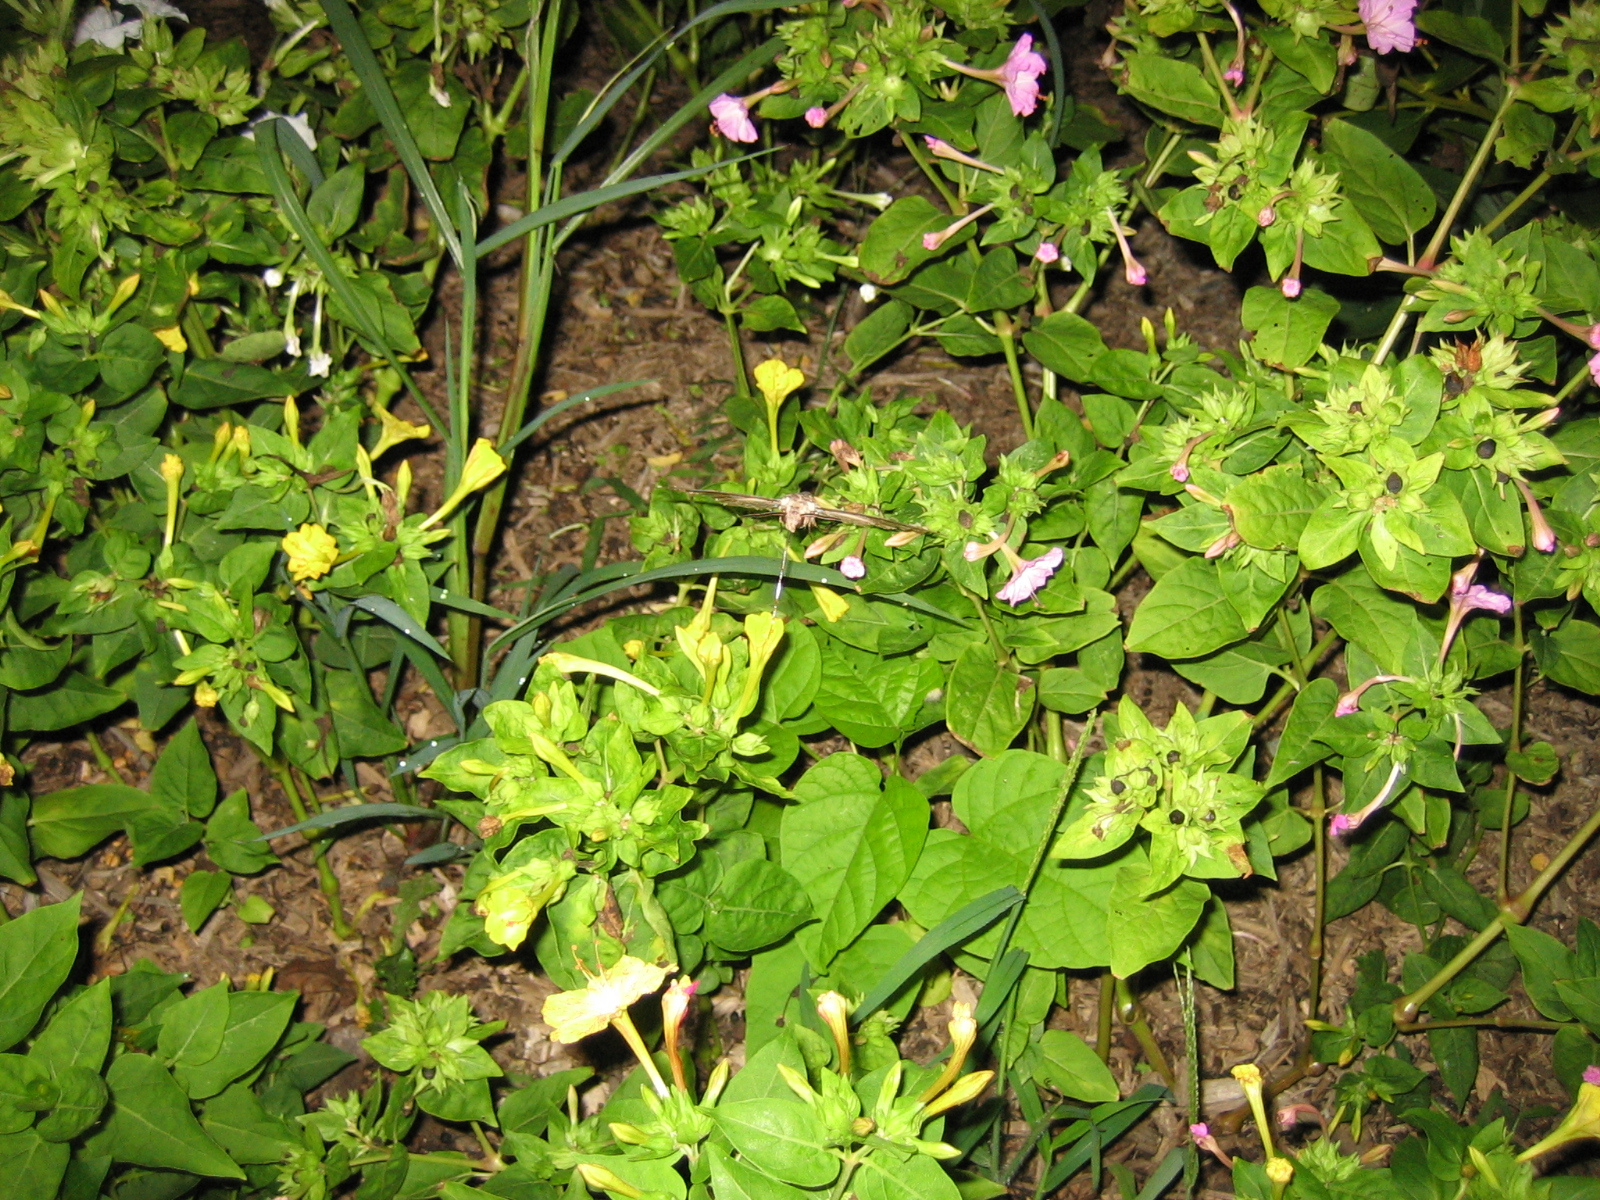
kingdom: Animalia
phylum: Arthropoda
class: Insecta
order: Lepidoptera
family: Sphingidae
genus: Manduca
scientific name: Manduca sexta
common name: Carolina sphinx
